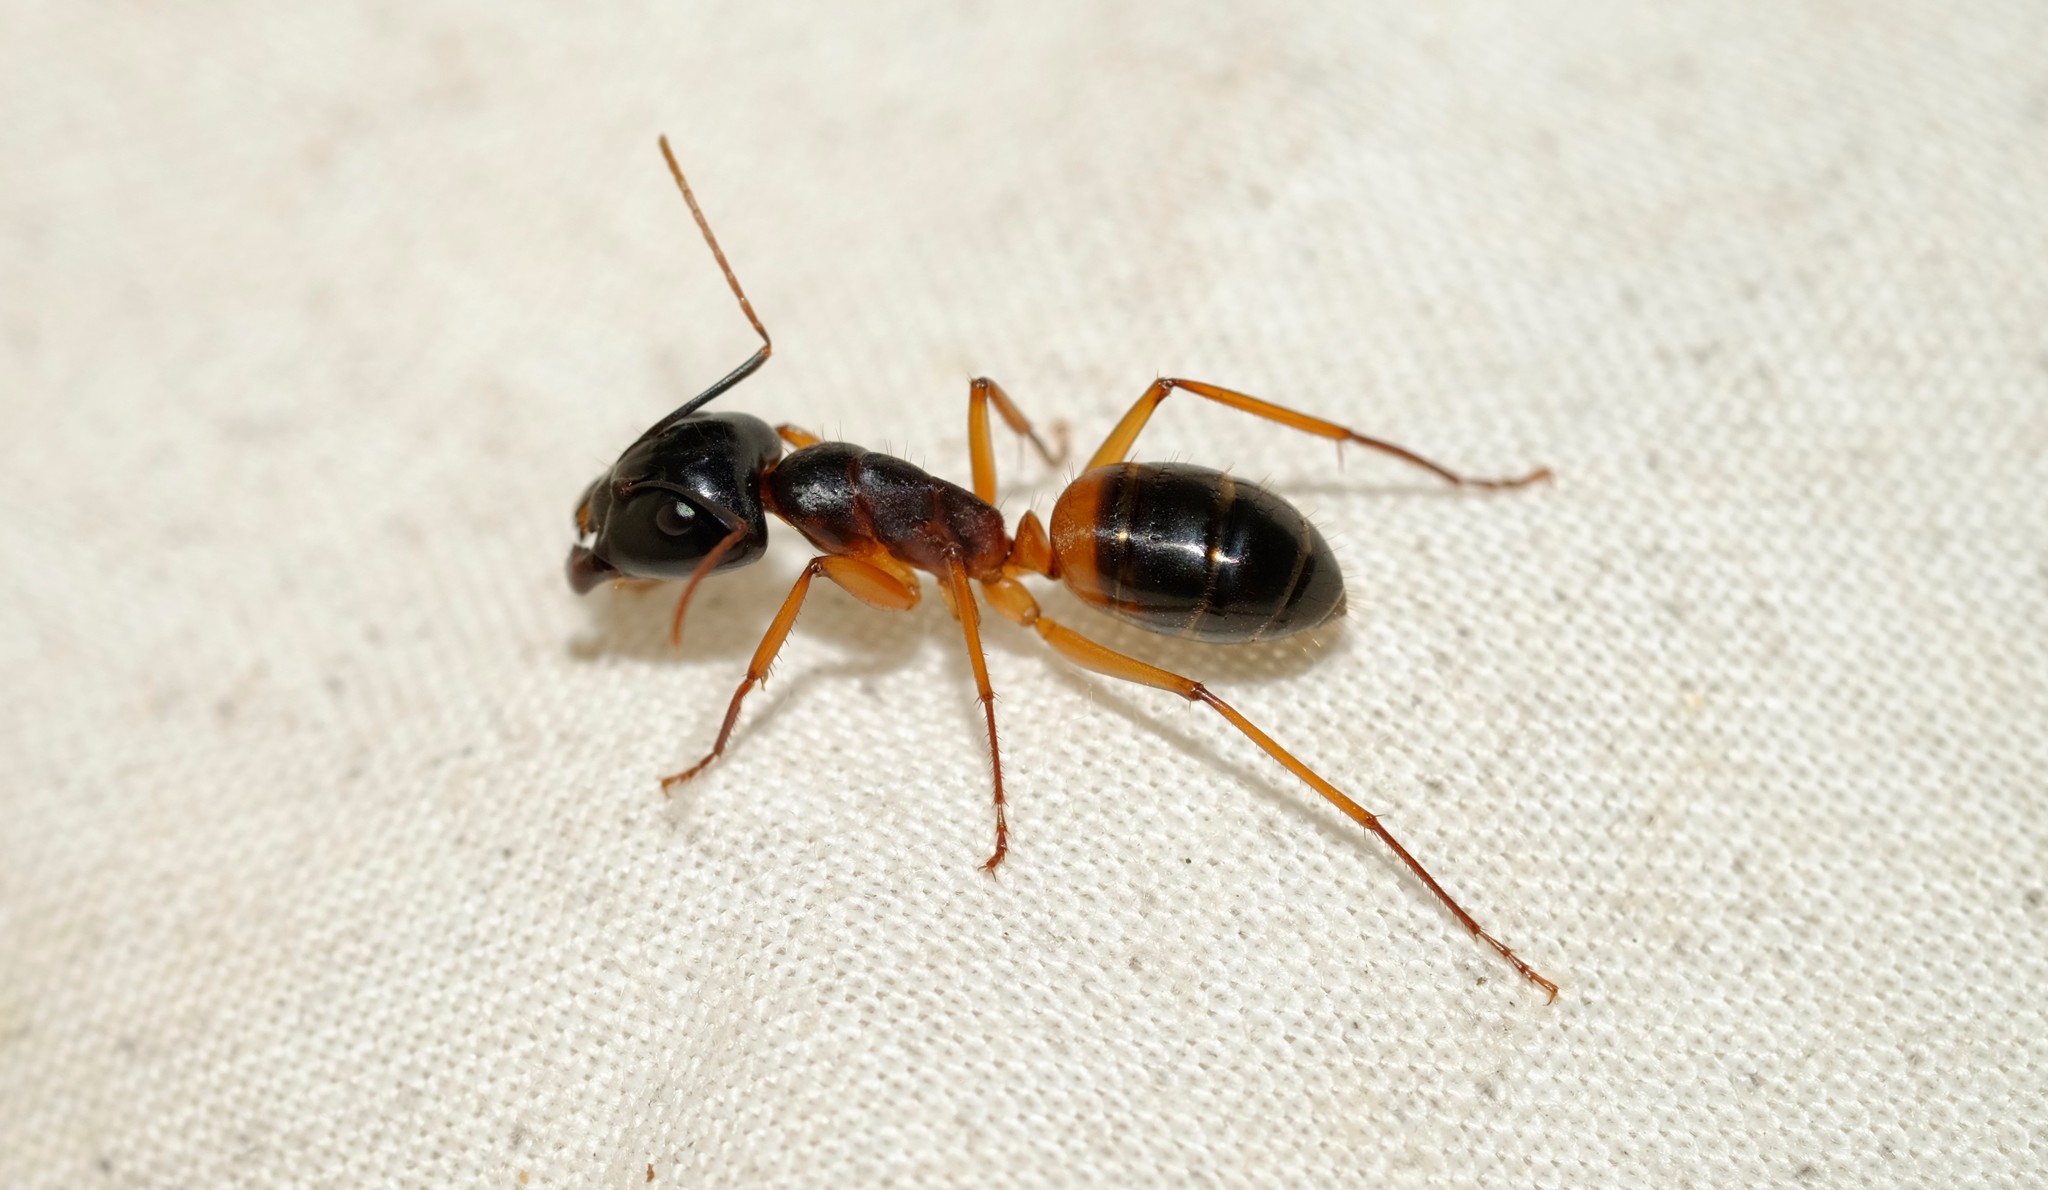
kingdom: Animalia
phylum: Arthropoda
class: Insecta
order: Hymenoptera
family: Formicidae
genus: Camponotus
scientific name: Camponotus consobrinus
